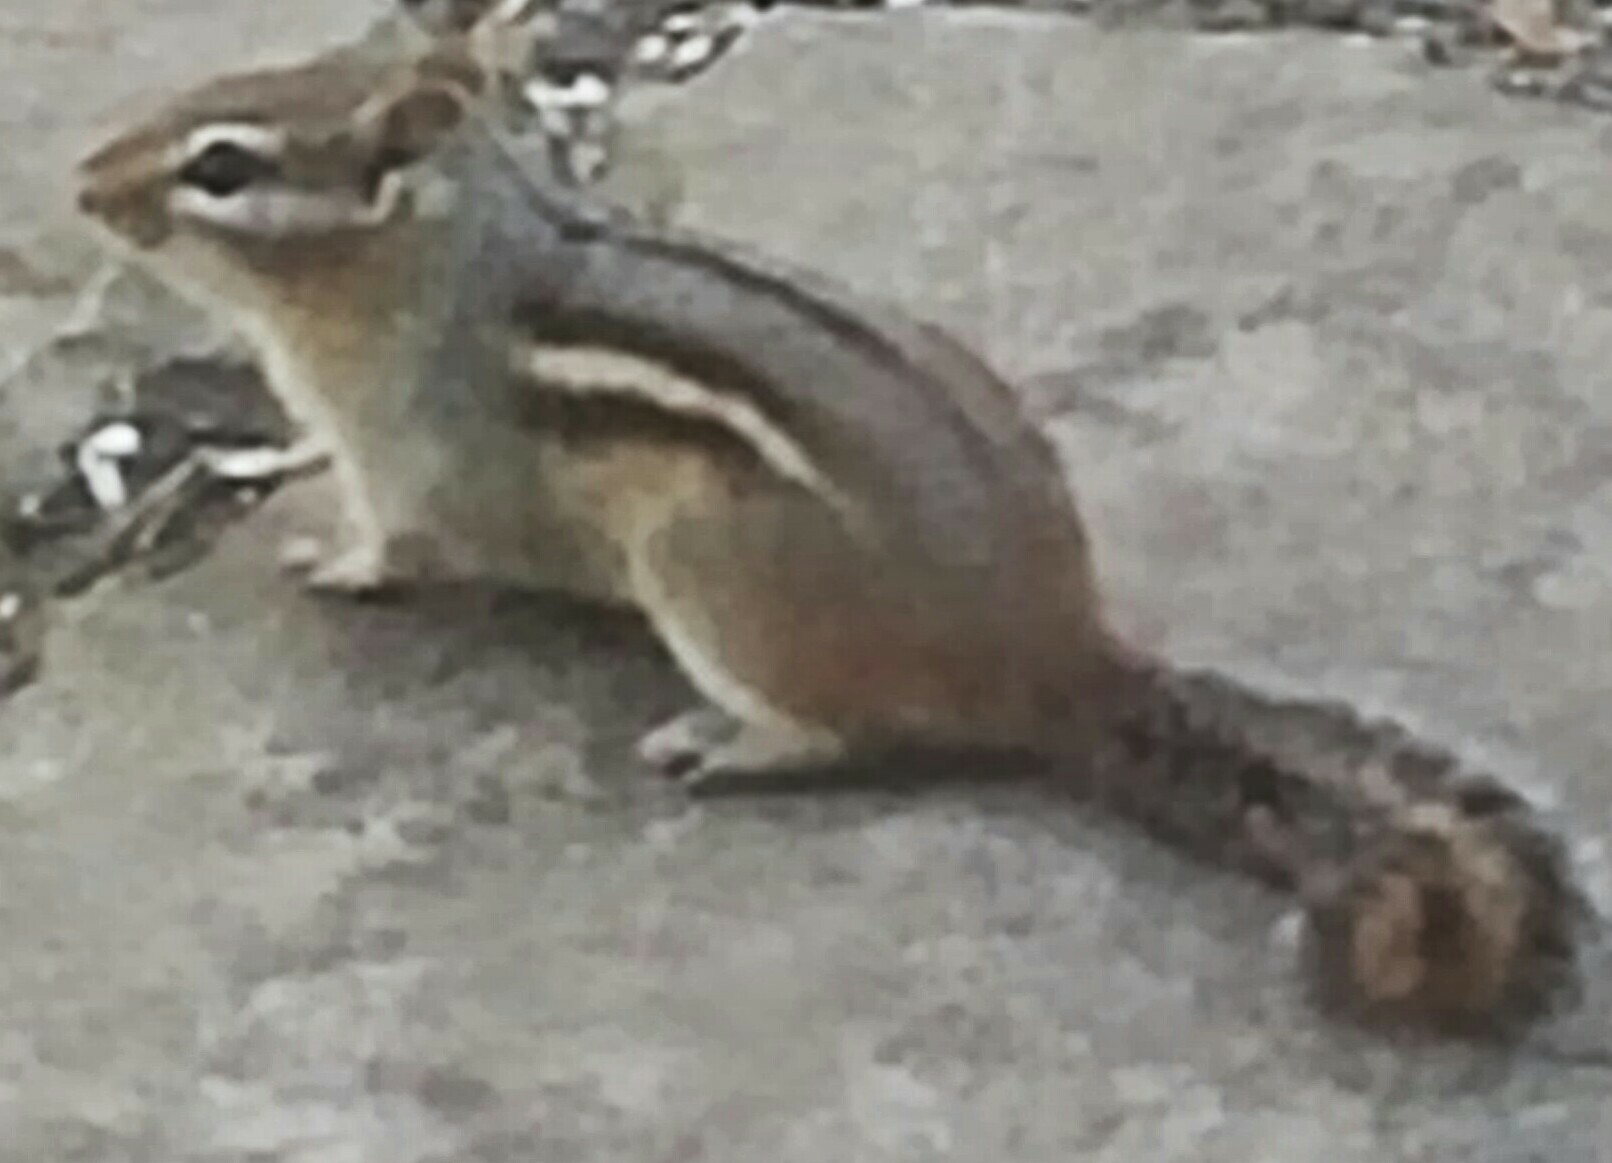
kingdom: Animalia
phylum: Chordata
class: Mammalia
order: Rodentia
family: Sciuridae
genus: Tamias
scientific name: Tamias striatus
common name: Eastern chipmunk
